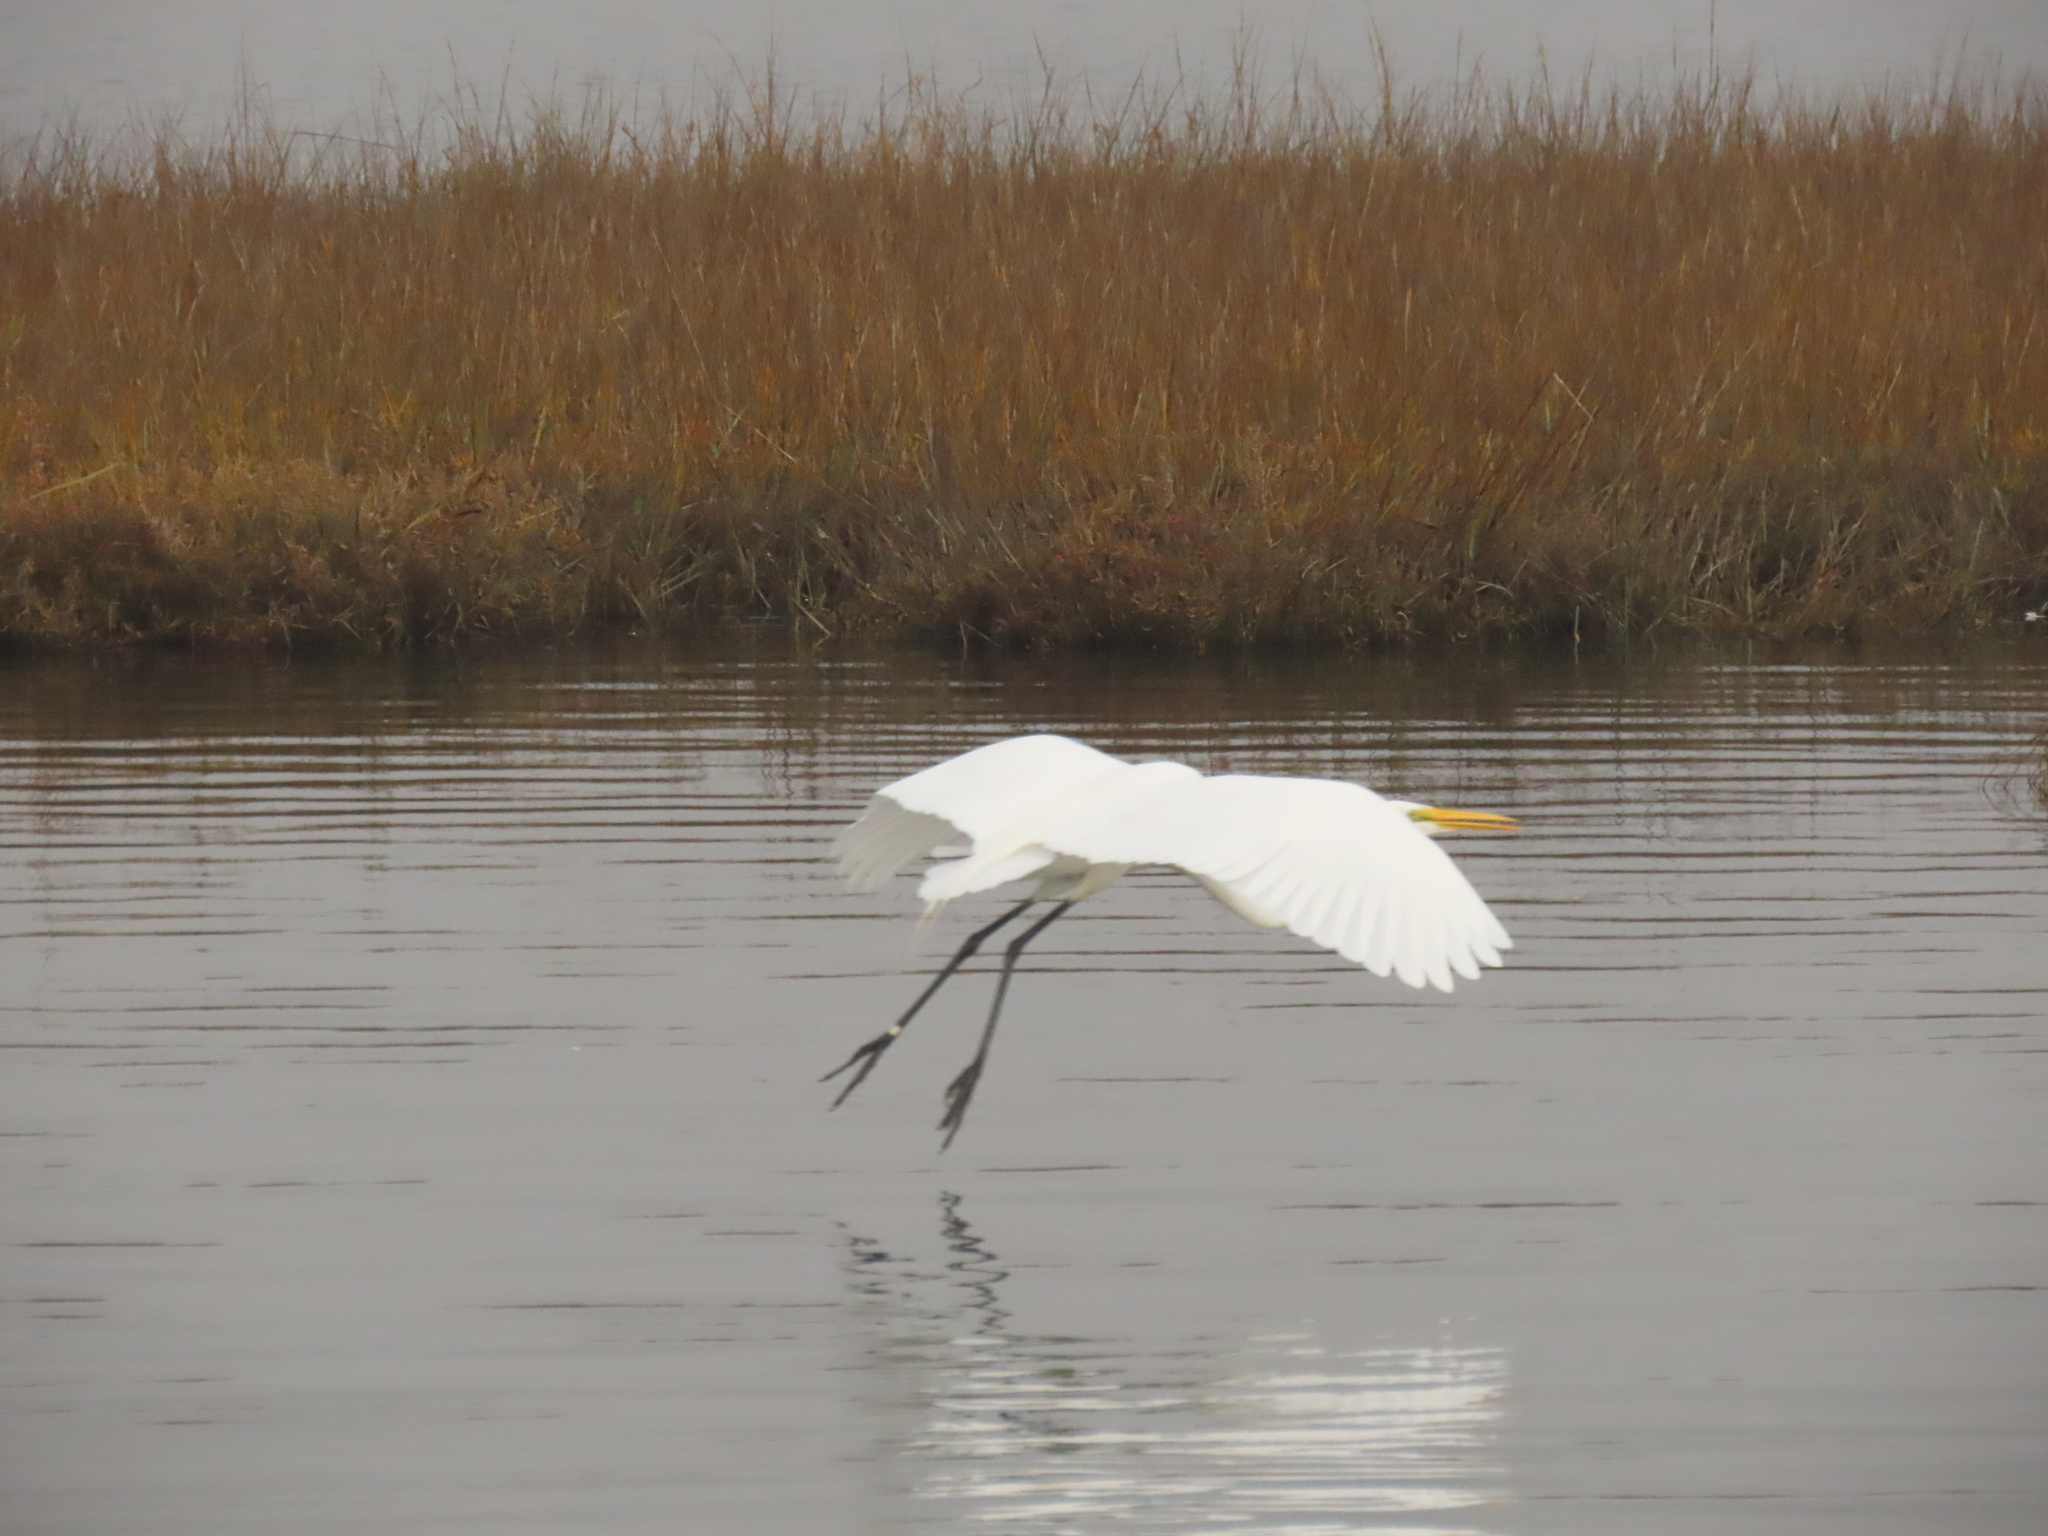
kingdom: Animalia
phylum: Chordata
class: Aves
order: Pelecaniformes
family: Ardeidae
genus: Ardea
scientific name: Ardea alba
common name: Great egret
